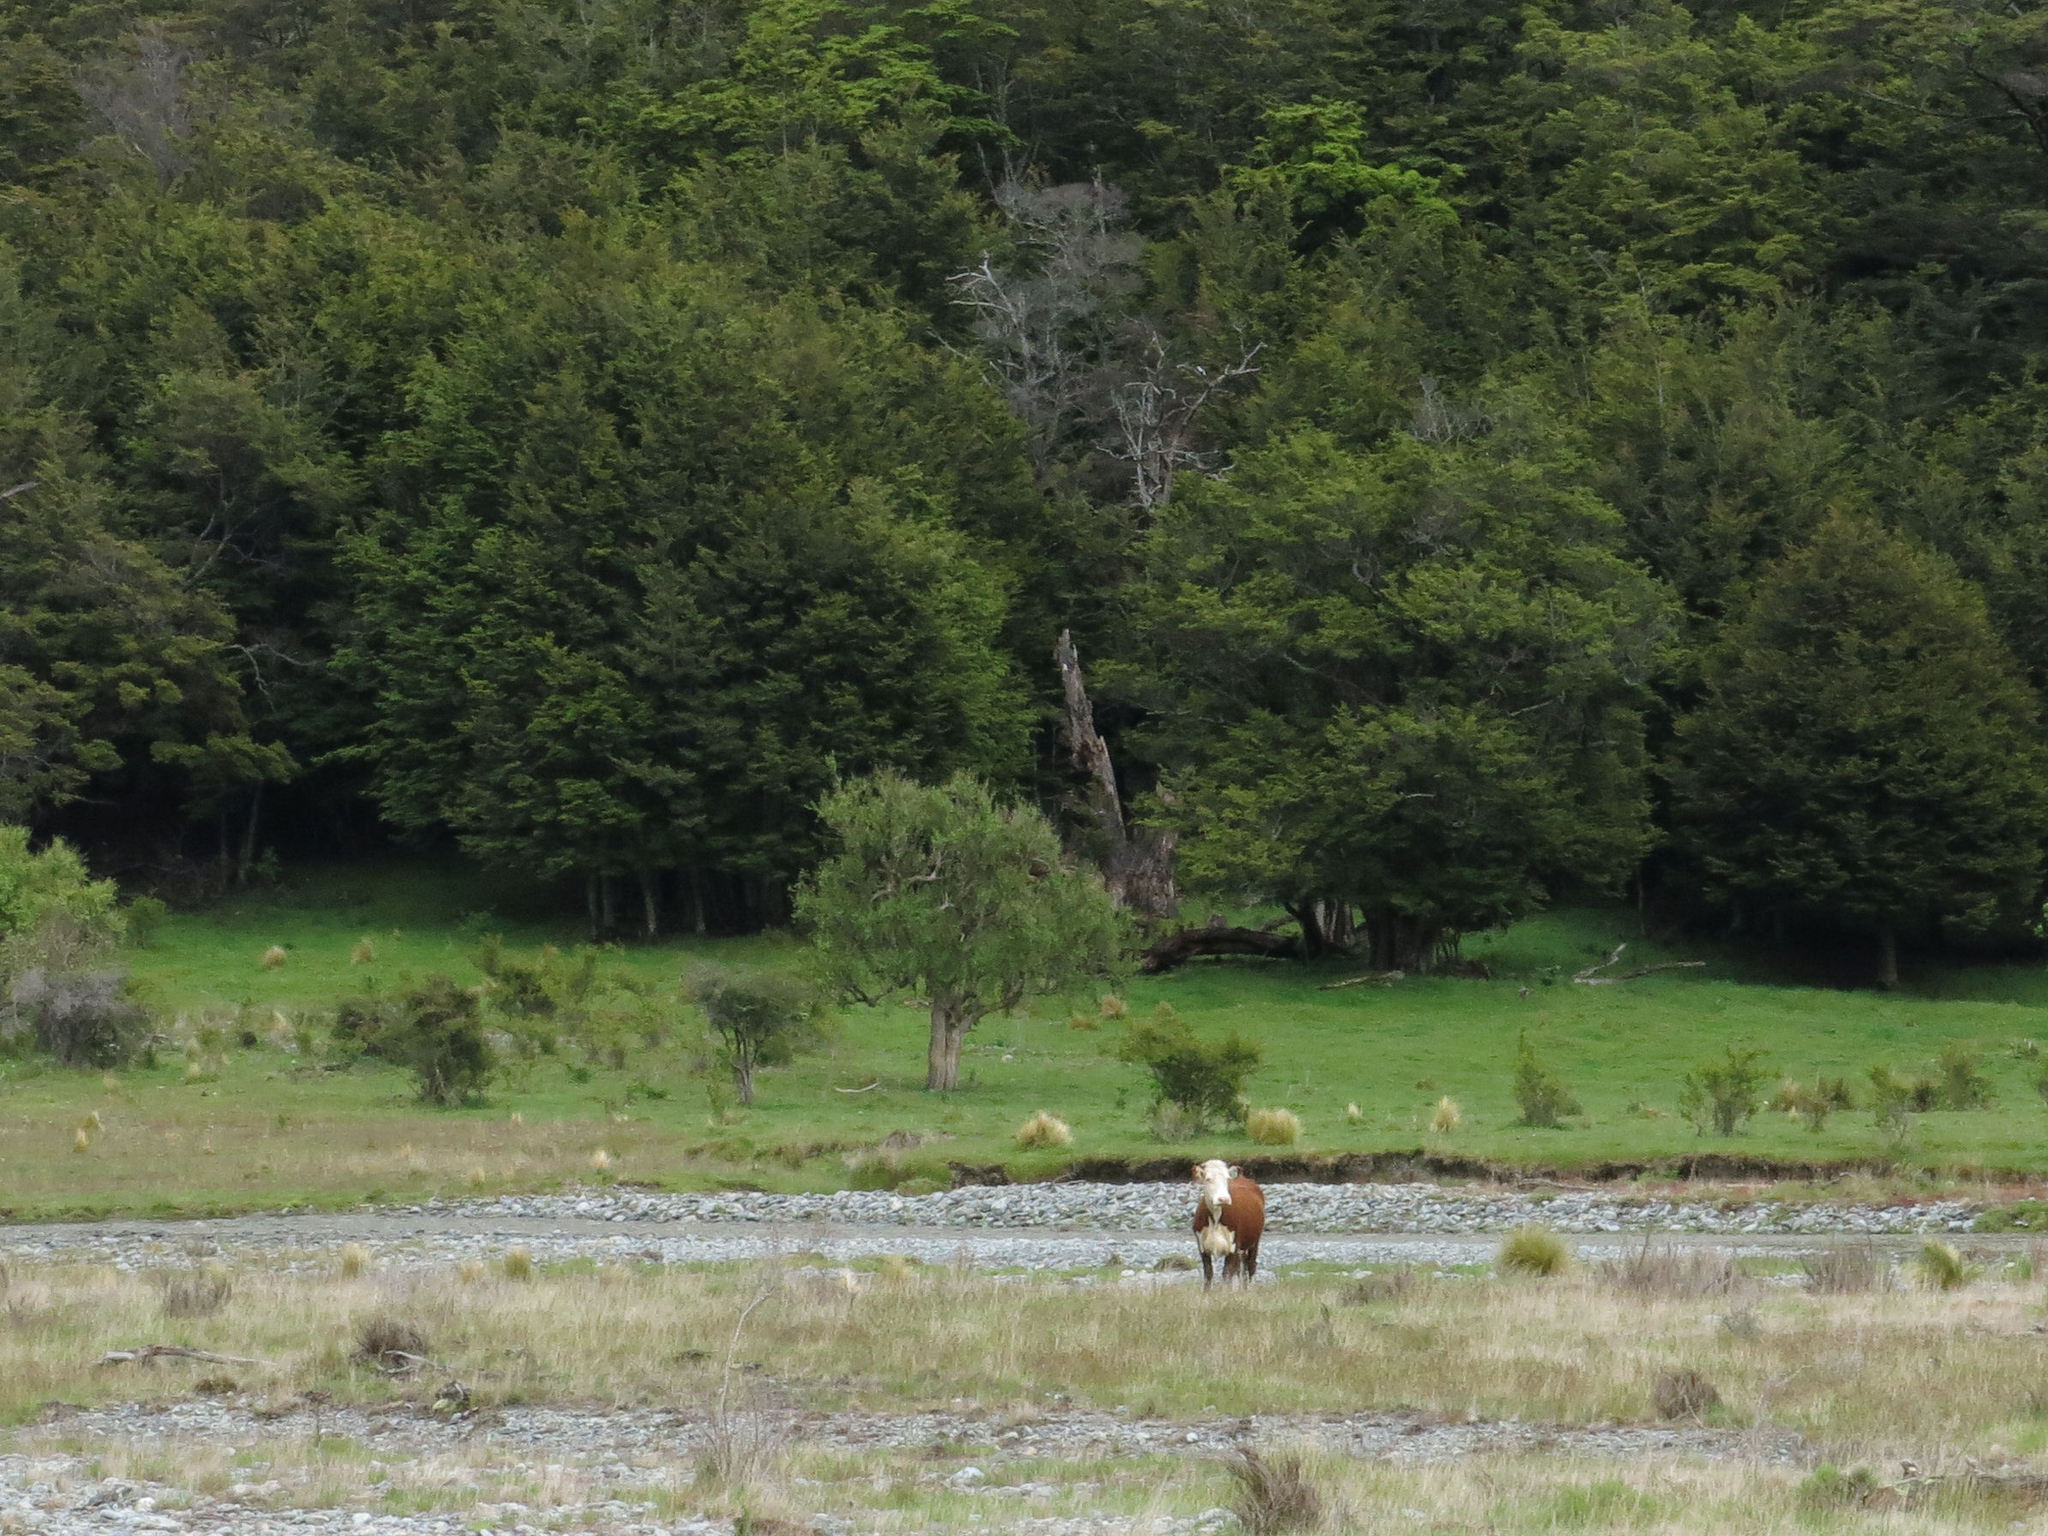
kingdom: Plantae
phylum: Tracheophyta
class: Magnoliopsida
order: Asterales
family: Asteraceae
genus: Olearia
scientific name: Olearia hectorii
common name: Deciduous tree daisy
